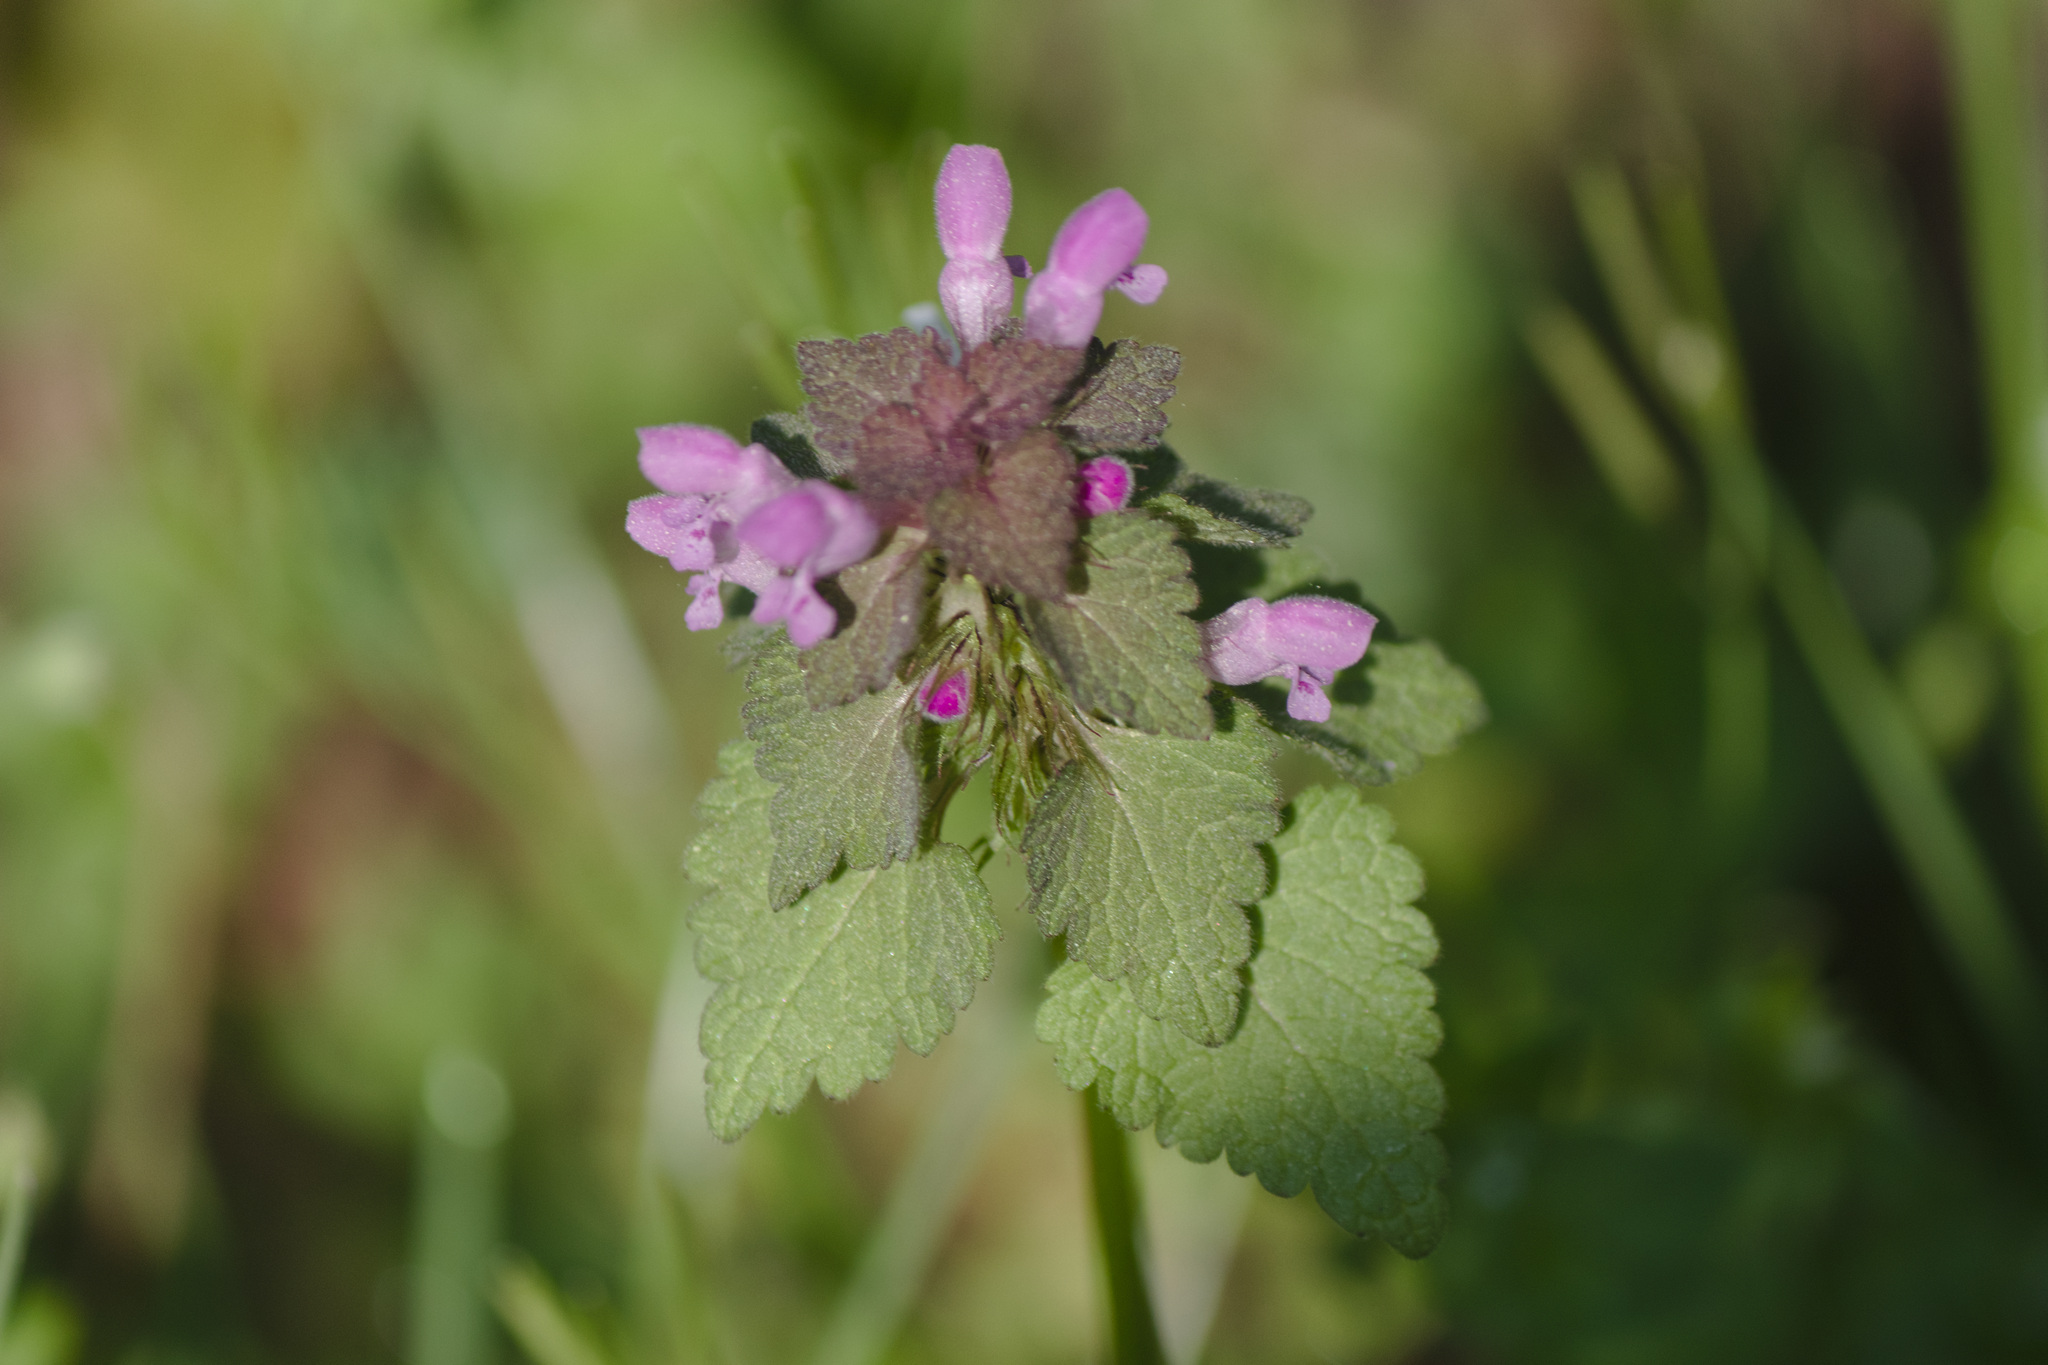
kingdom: Plantae
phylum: Tracheophyta
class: Magnoliopsida
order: Lamiales
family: Lamiaceae
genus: Lamium
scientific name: Lamium purpureum
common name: Red dead-nettle
